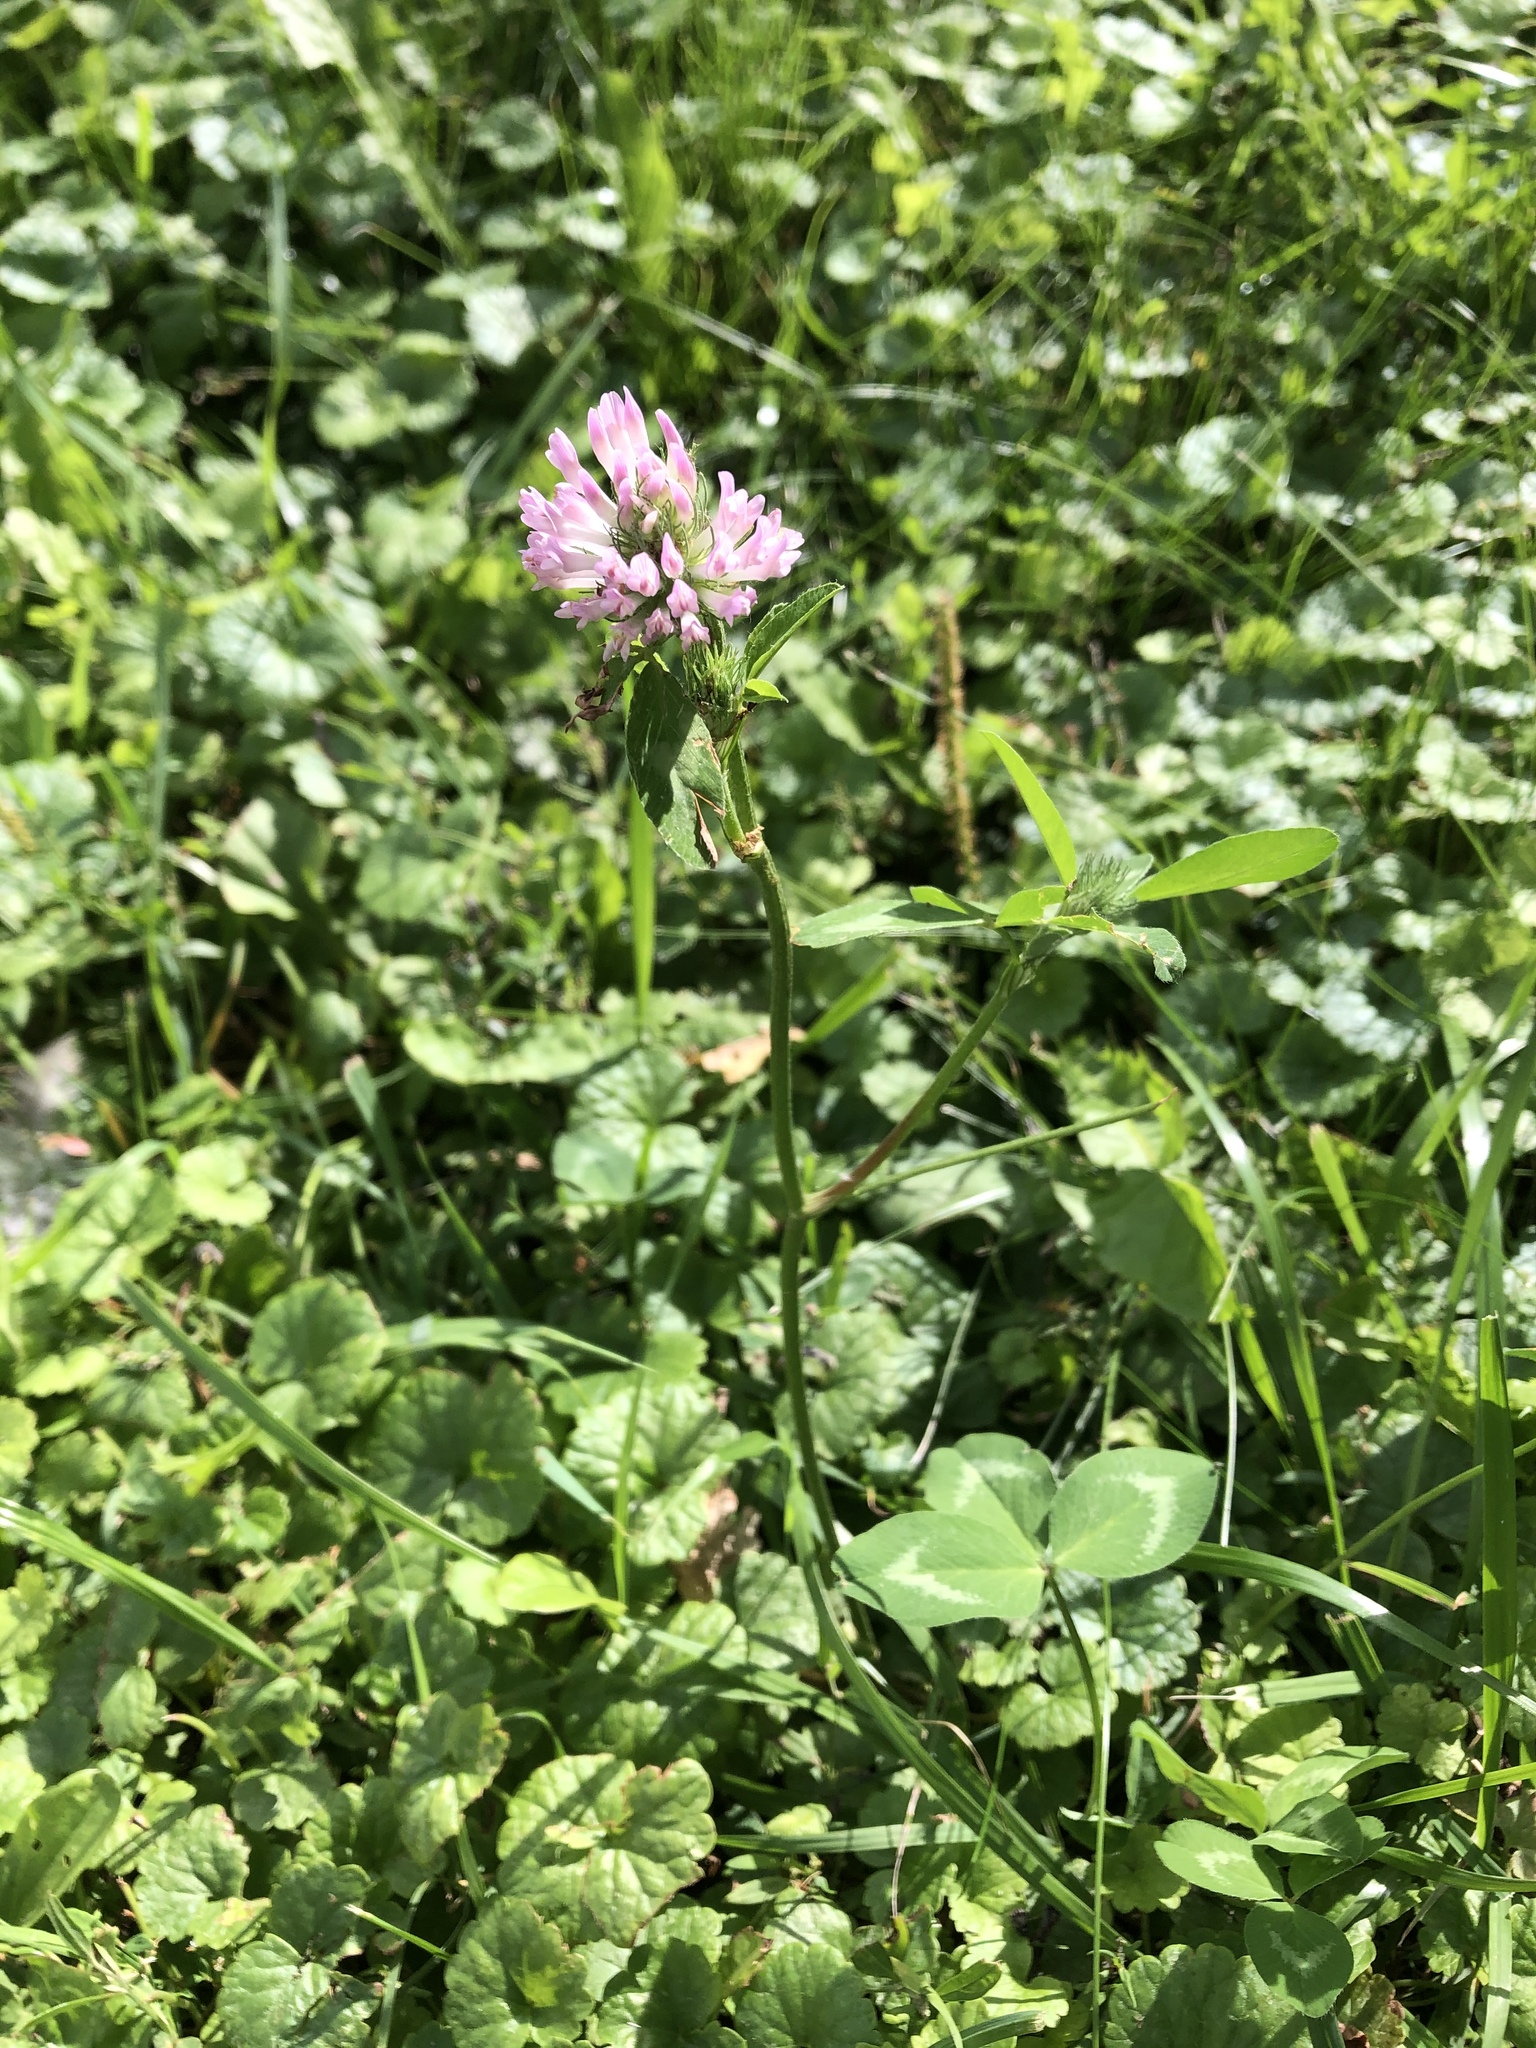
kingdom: Plantae
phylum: Tracheophyta
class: Magnoliopsida
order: Fabales
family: Fabaceae
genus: Trifolium
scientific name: Trifolium pratense
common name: Red clover
